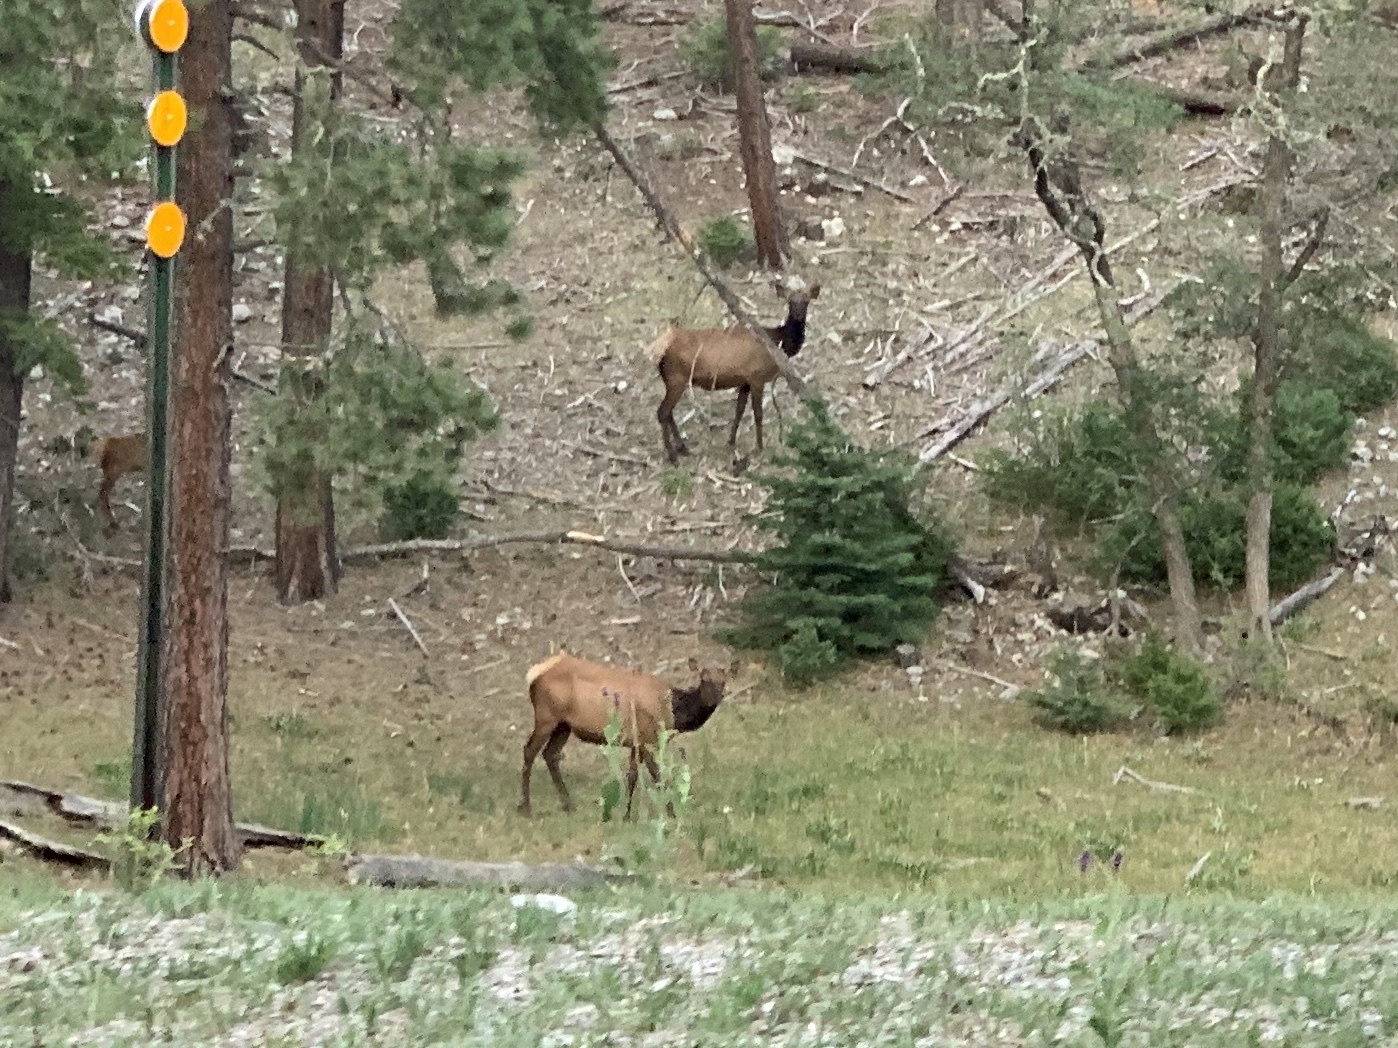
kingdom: Animalia
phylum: Chordata
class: Mammalia
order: Artiodactyla
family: Cervidae
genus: Cervus
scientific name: Cervus elaphus
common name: Red deer
